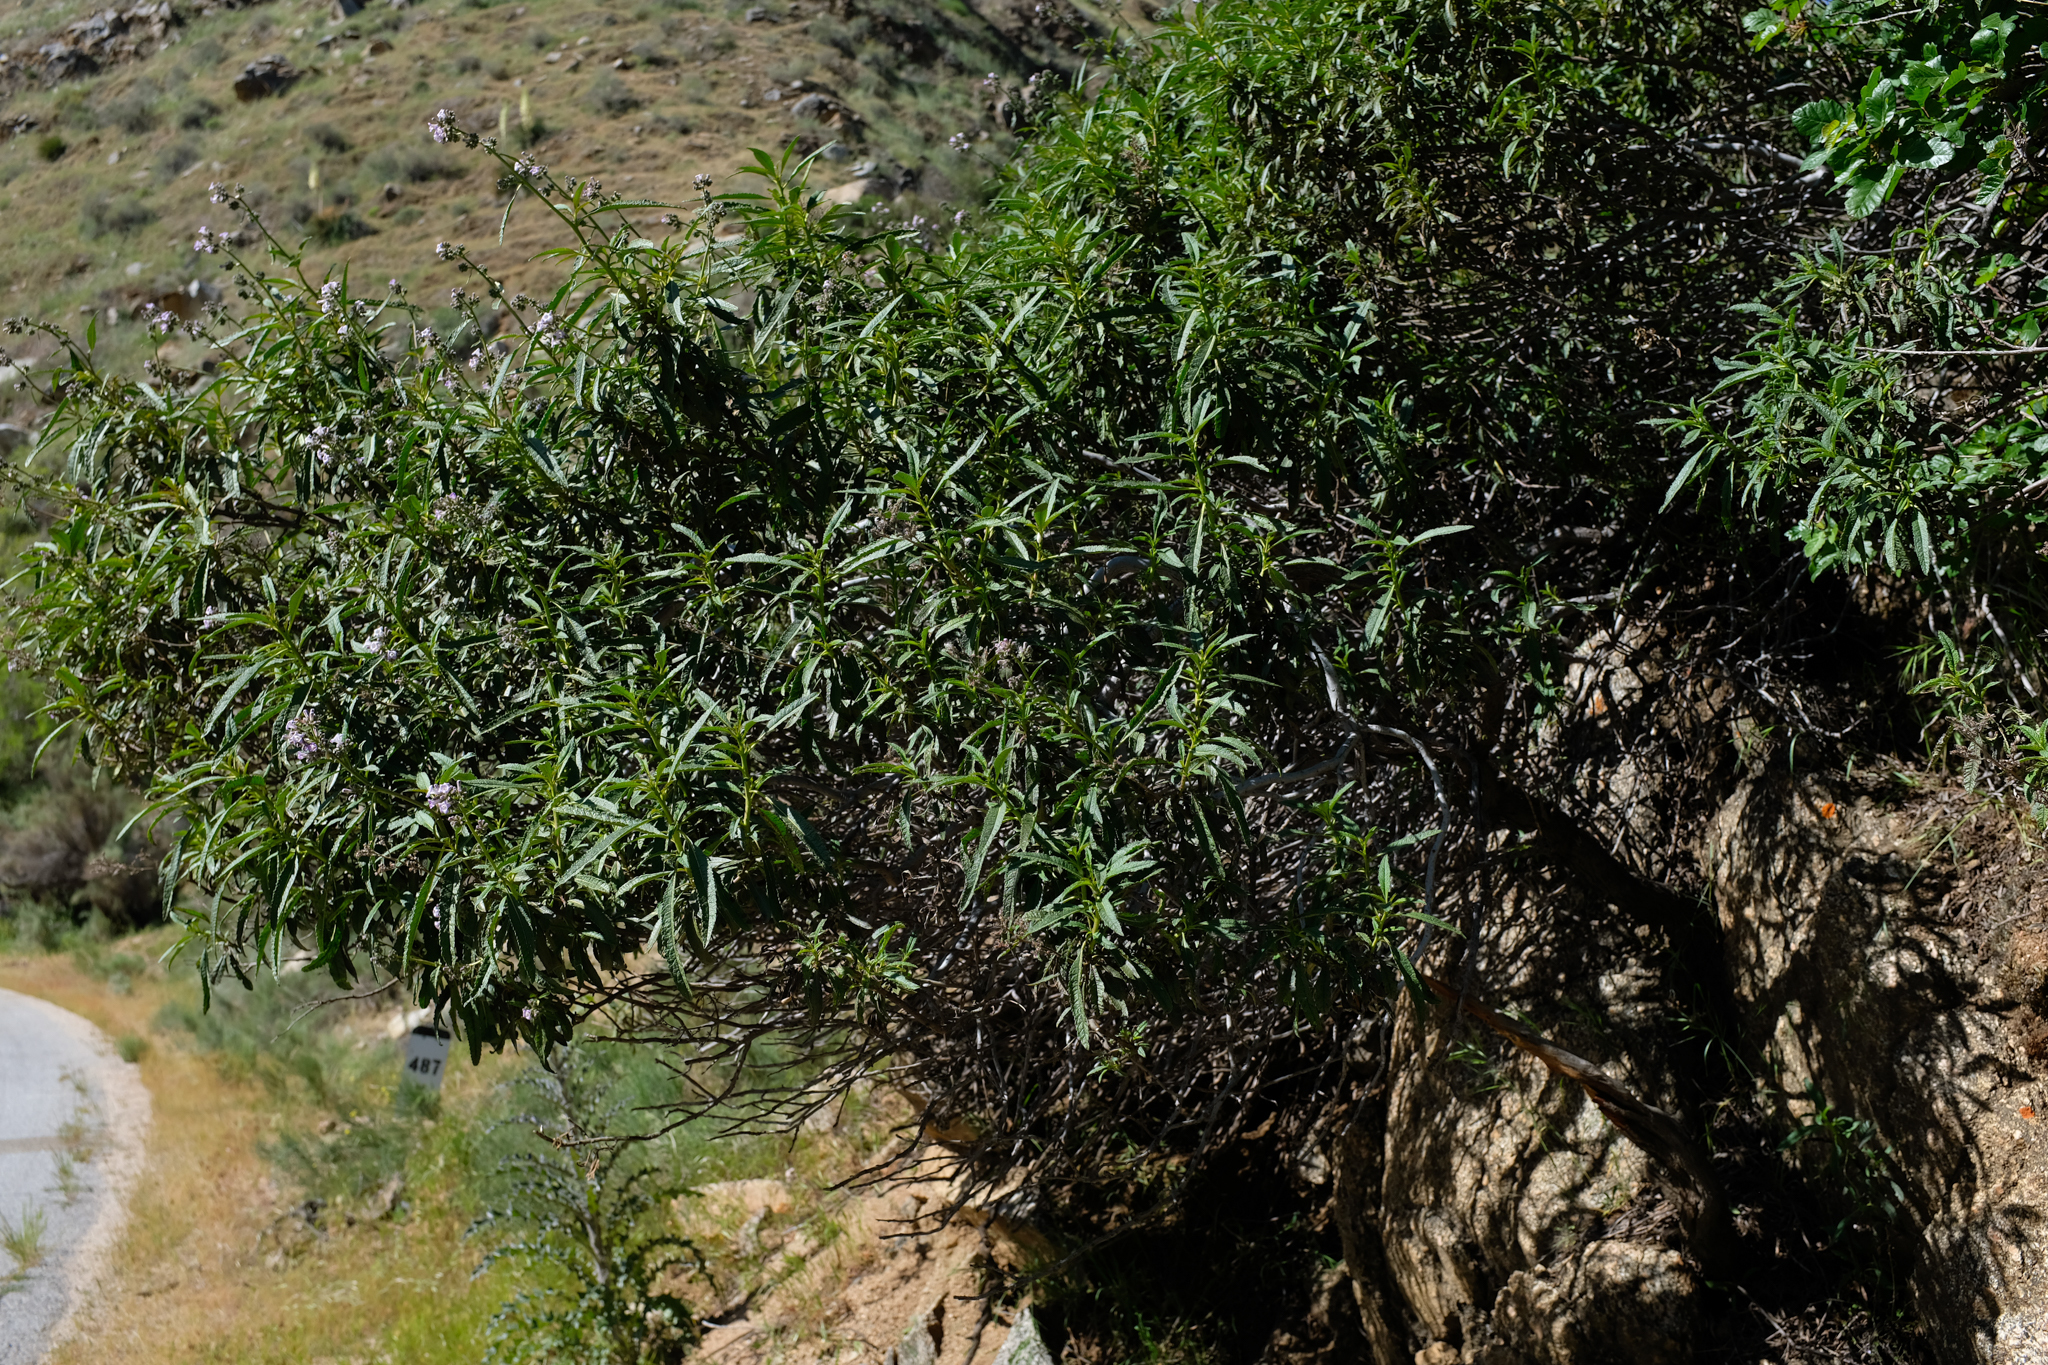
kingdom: Plantae
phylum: Tracheophyta
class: Magnoliopsida
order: Boraginales
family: Namaceae
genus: Eriodictyon
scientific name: Eriodictyon californicum
